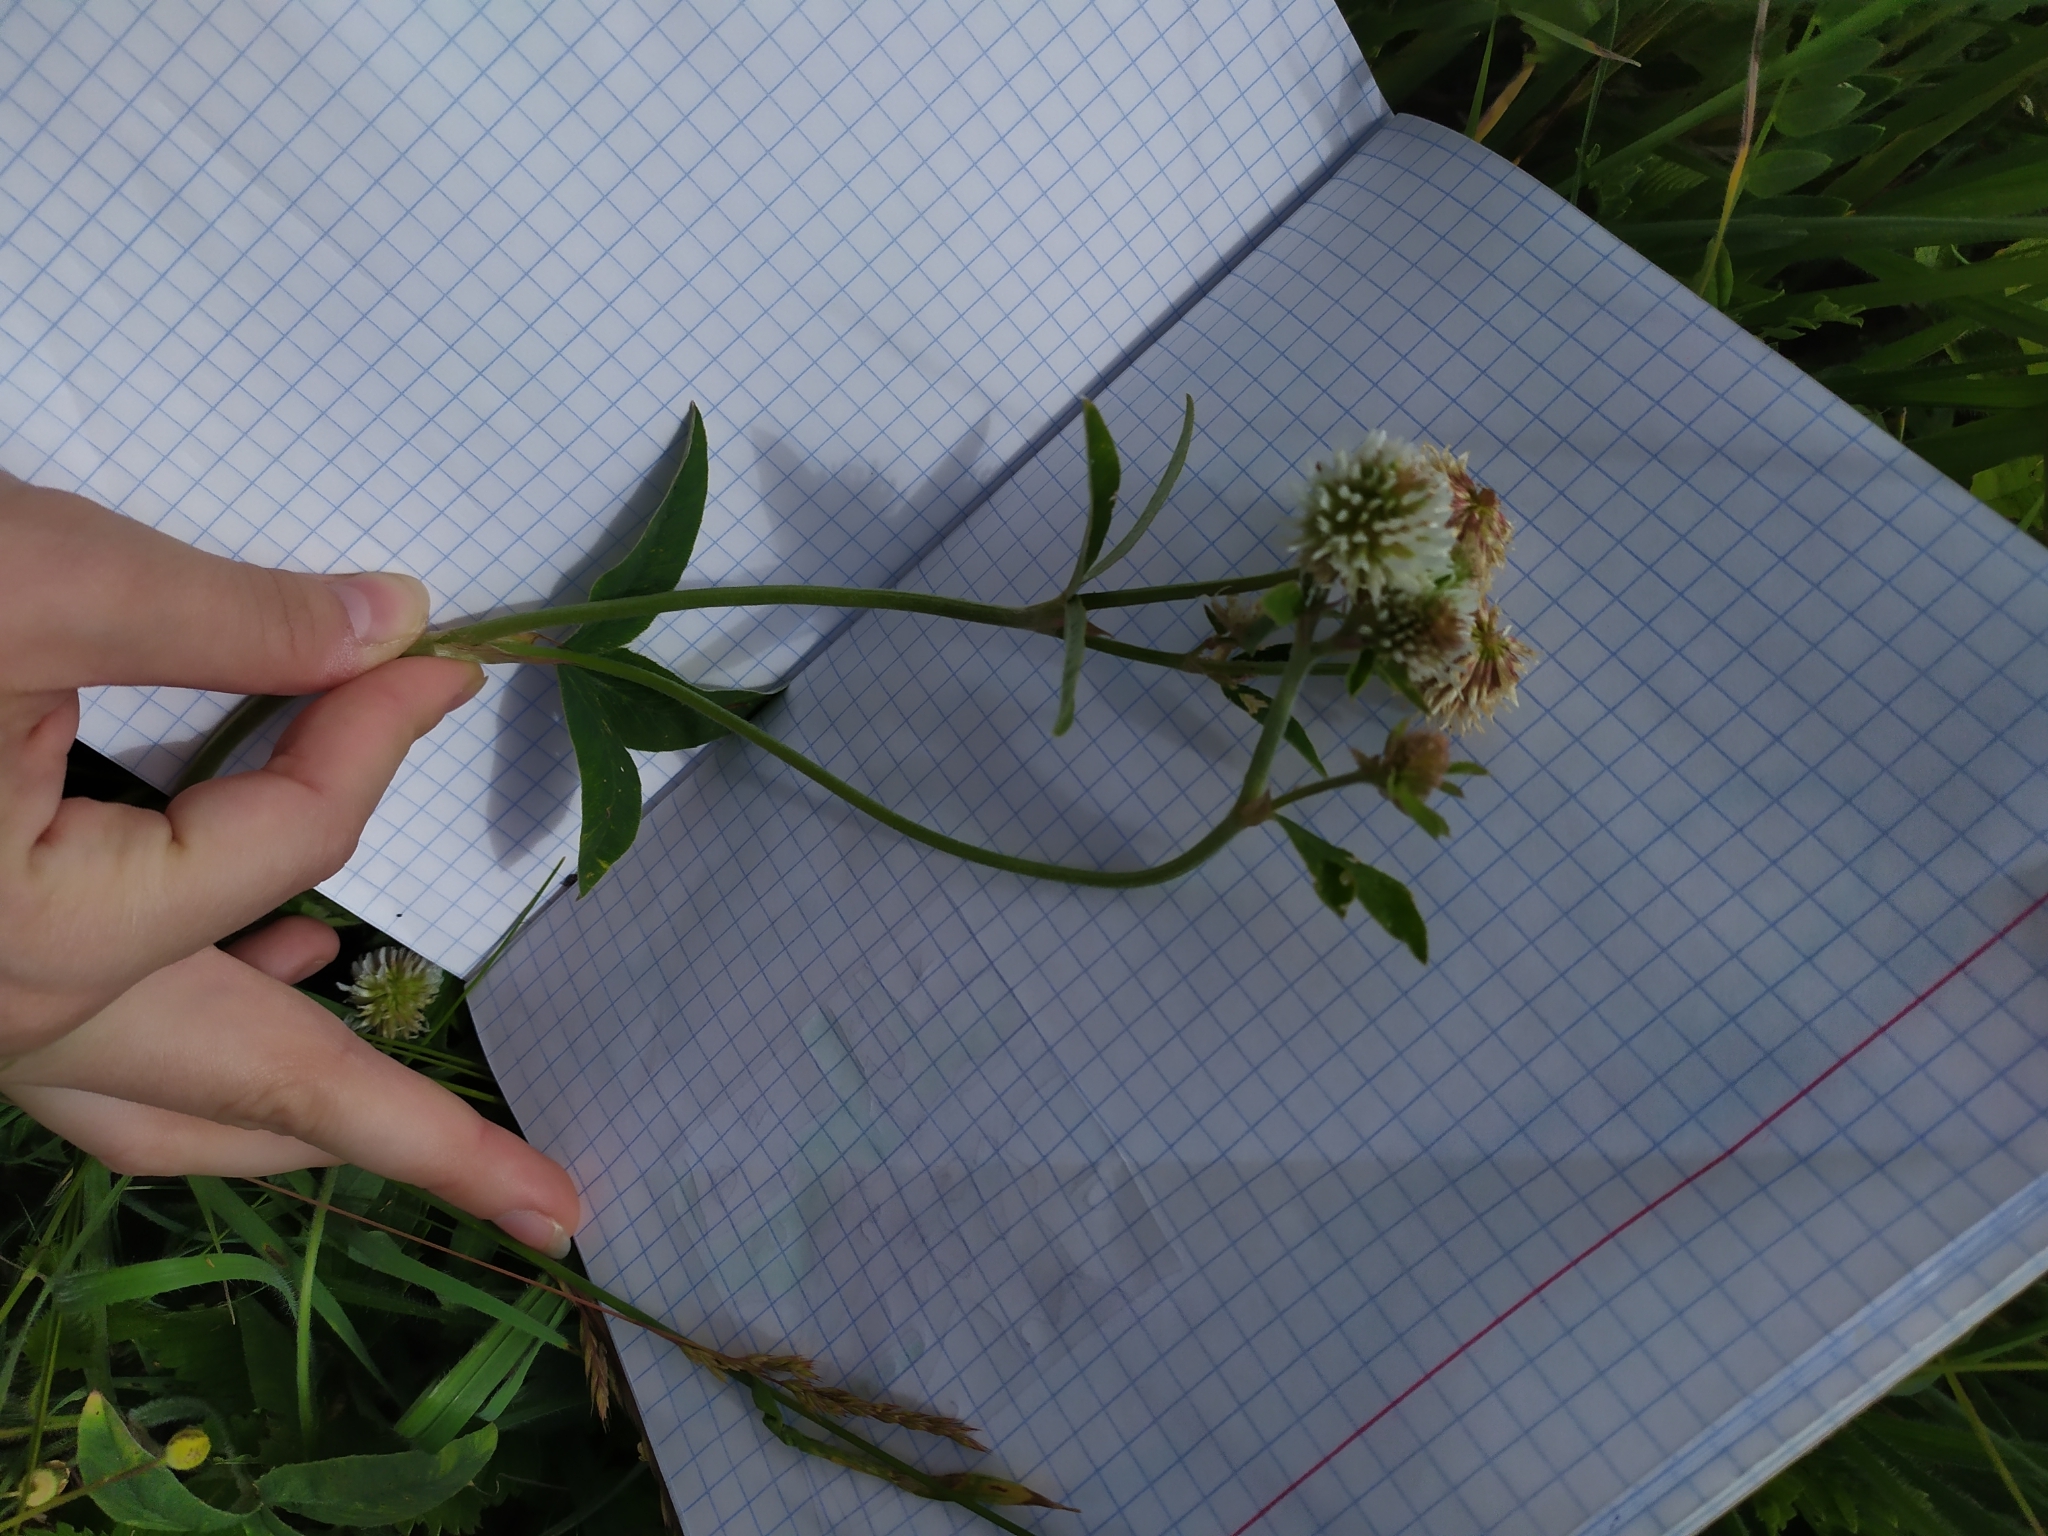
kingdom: Plantae
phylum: Tracheophyta
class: Magnoliopsida
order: Fabales
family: Fabaceae
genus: Trifolium
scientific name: Trifolium montanum
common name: Mountain clover
